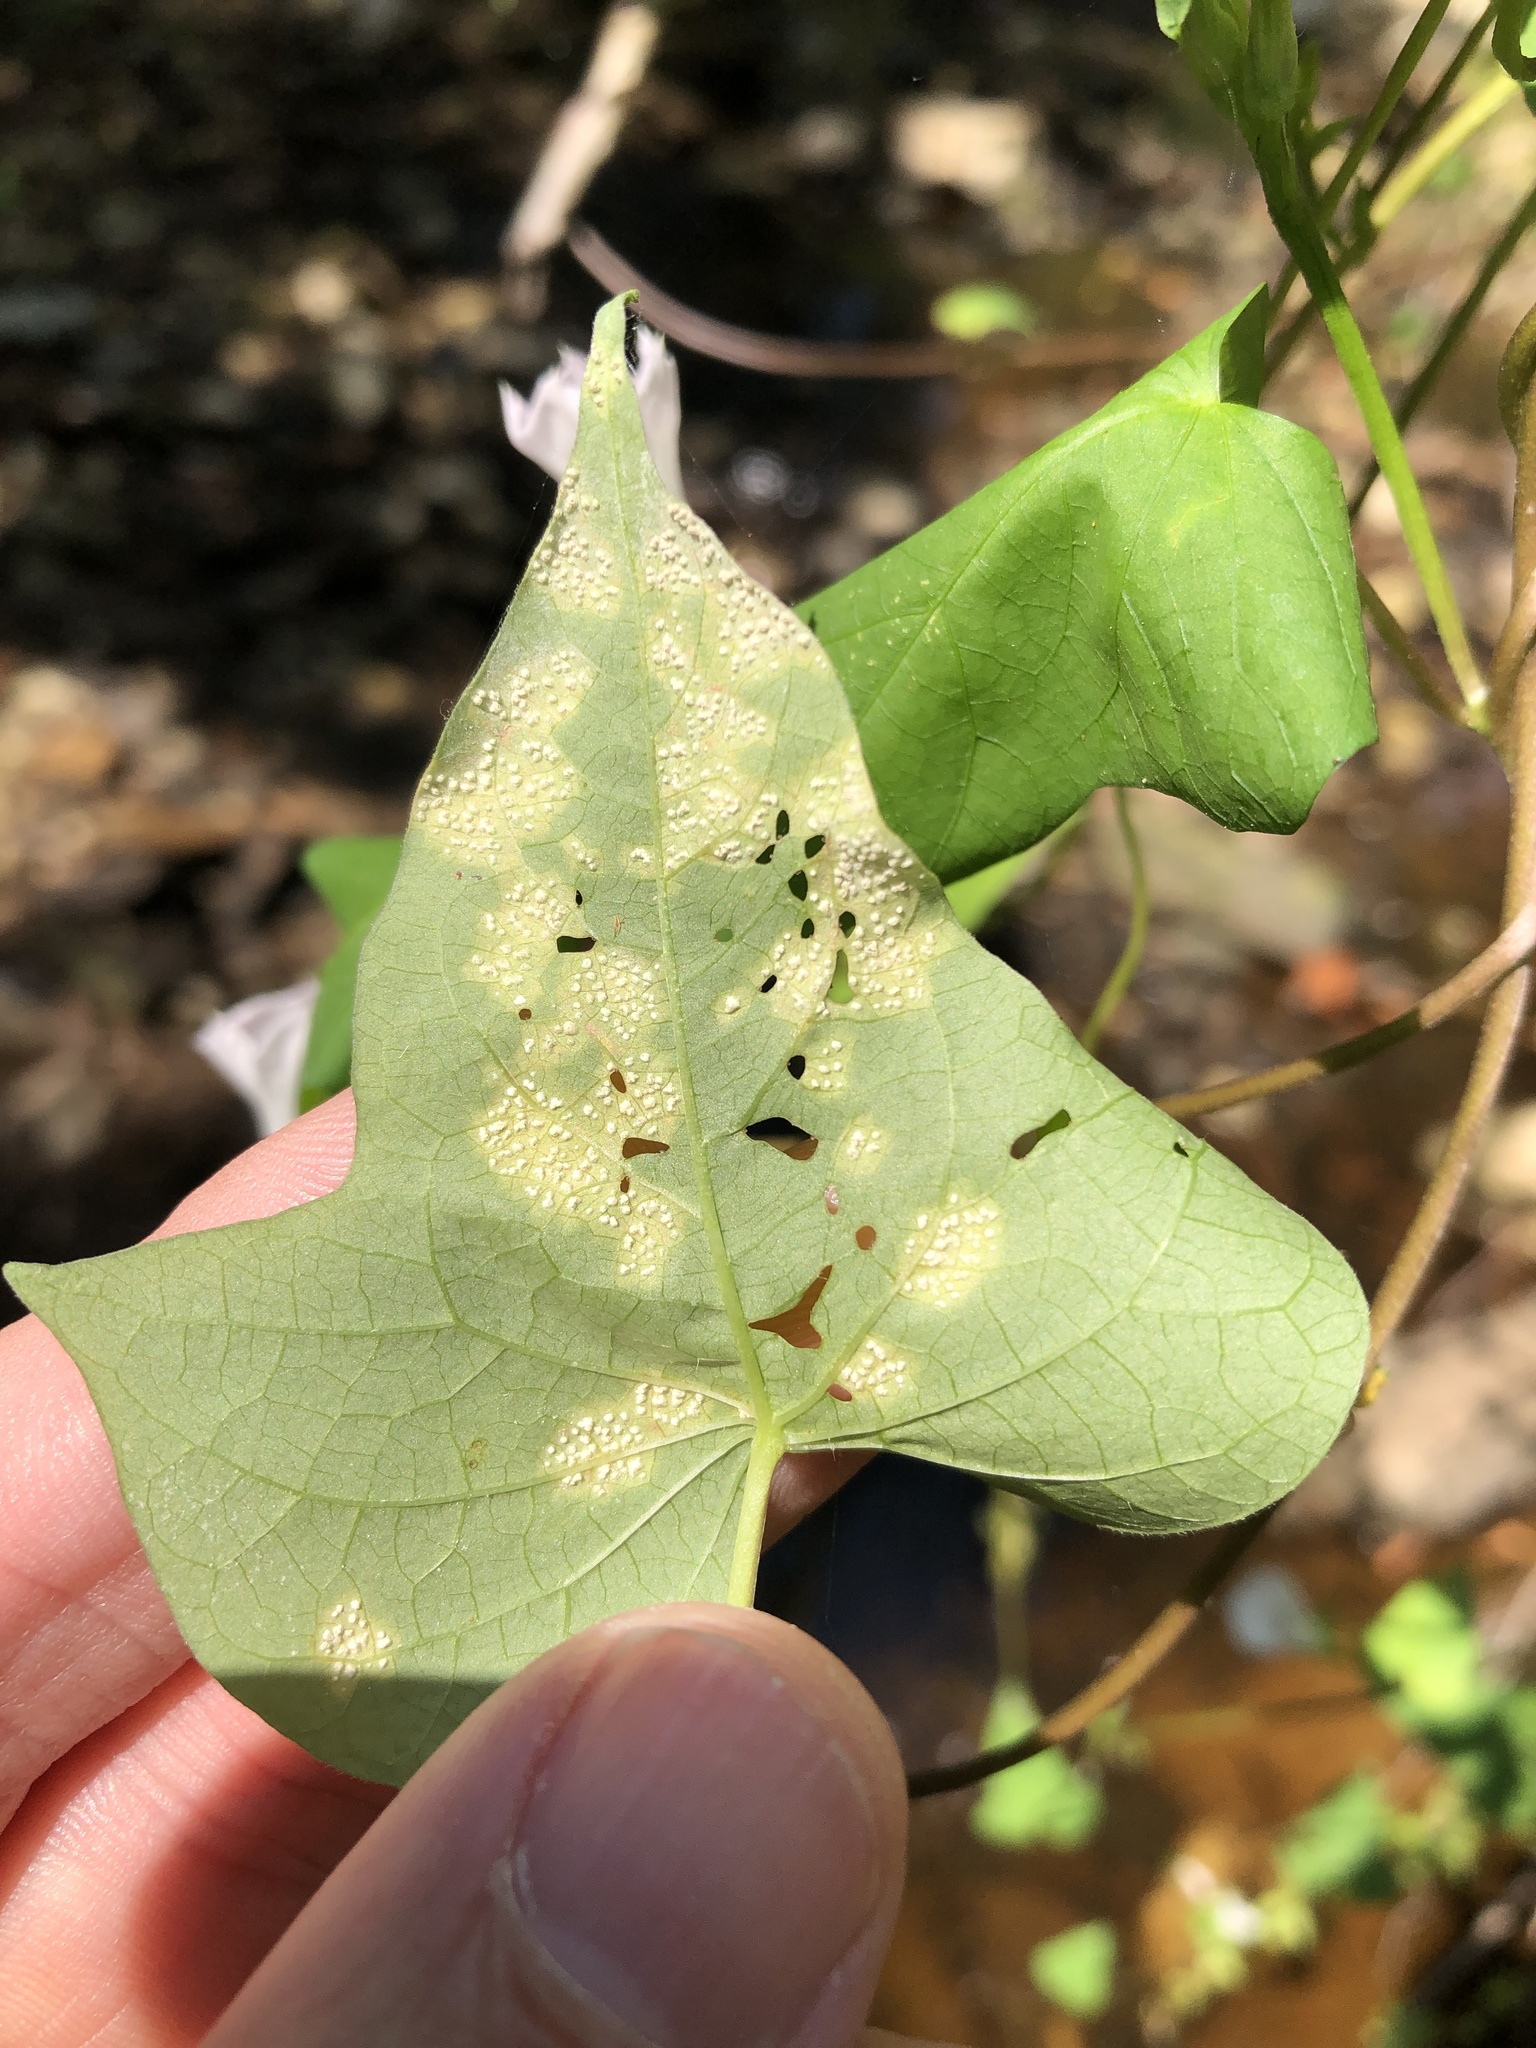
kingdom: Chromista
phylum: Oomycota
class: Peronosporea
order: Albuginales
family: Albuginaceae
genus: Albugo
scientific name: Albugo ipomoeae-panduratae
